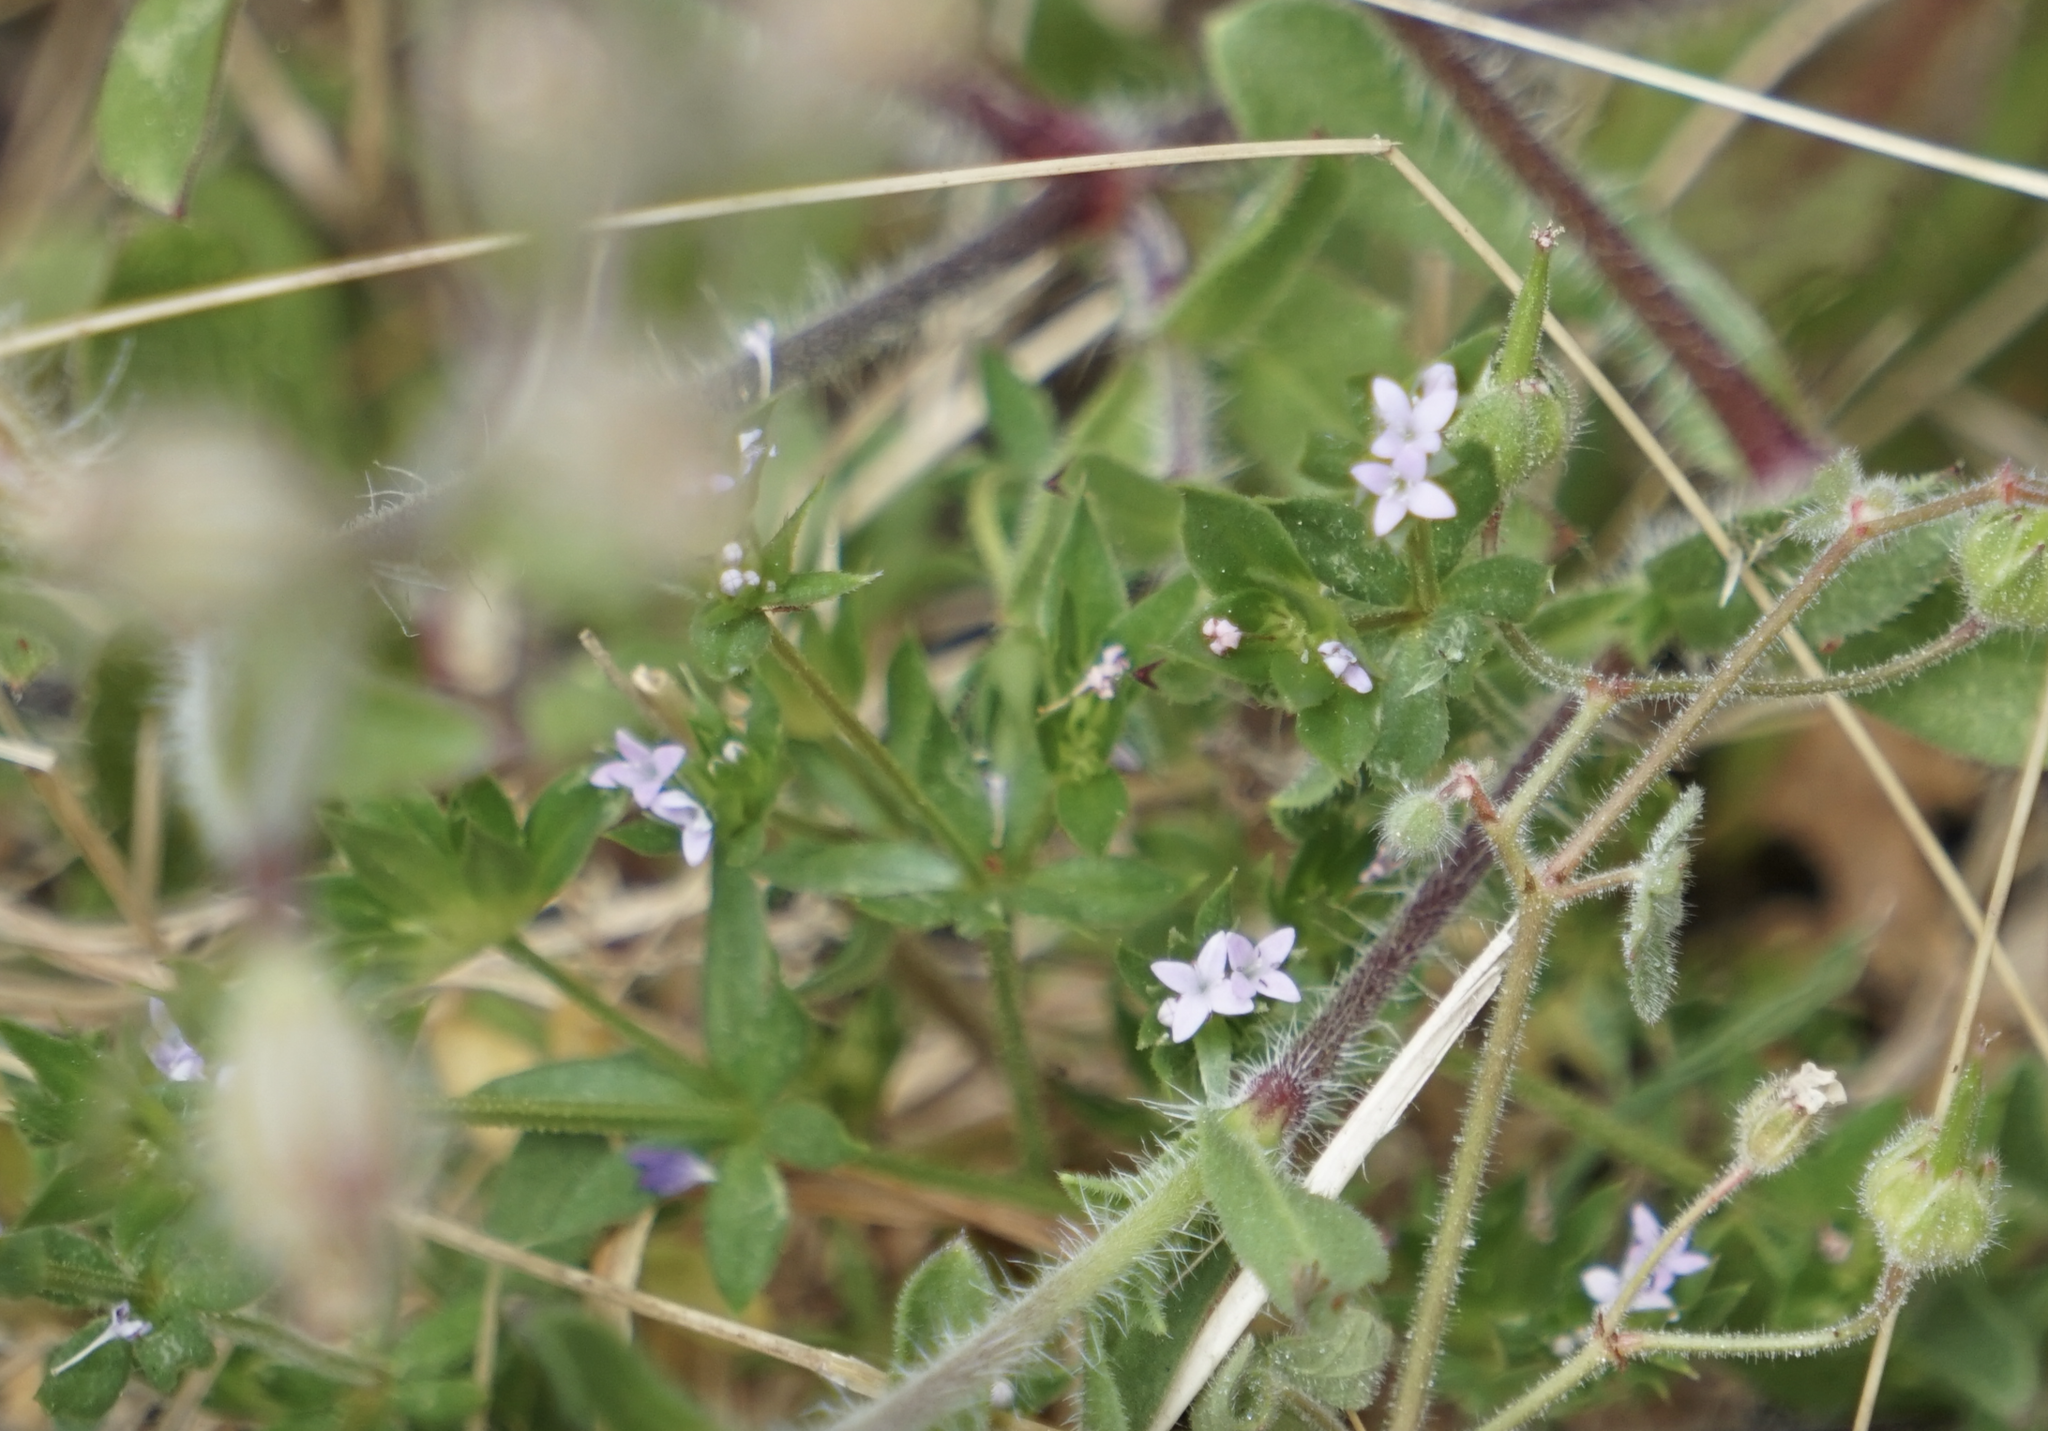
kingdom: Plantae
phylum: Tracheophyta
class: Magnoliopsida
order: Gentianales
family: Rubiaceae
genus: Sherardia
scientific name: Sherardia arvensis
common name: Field madder
